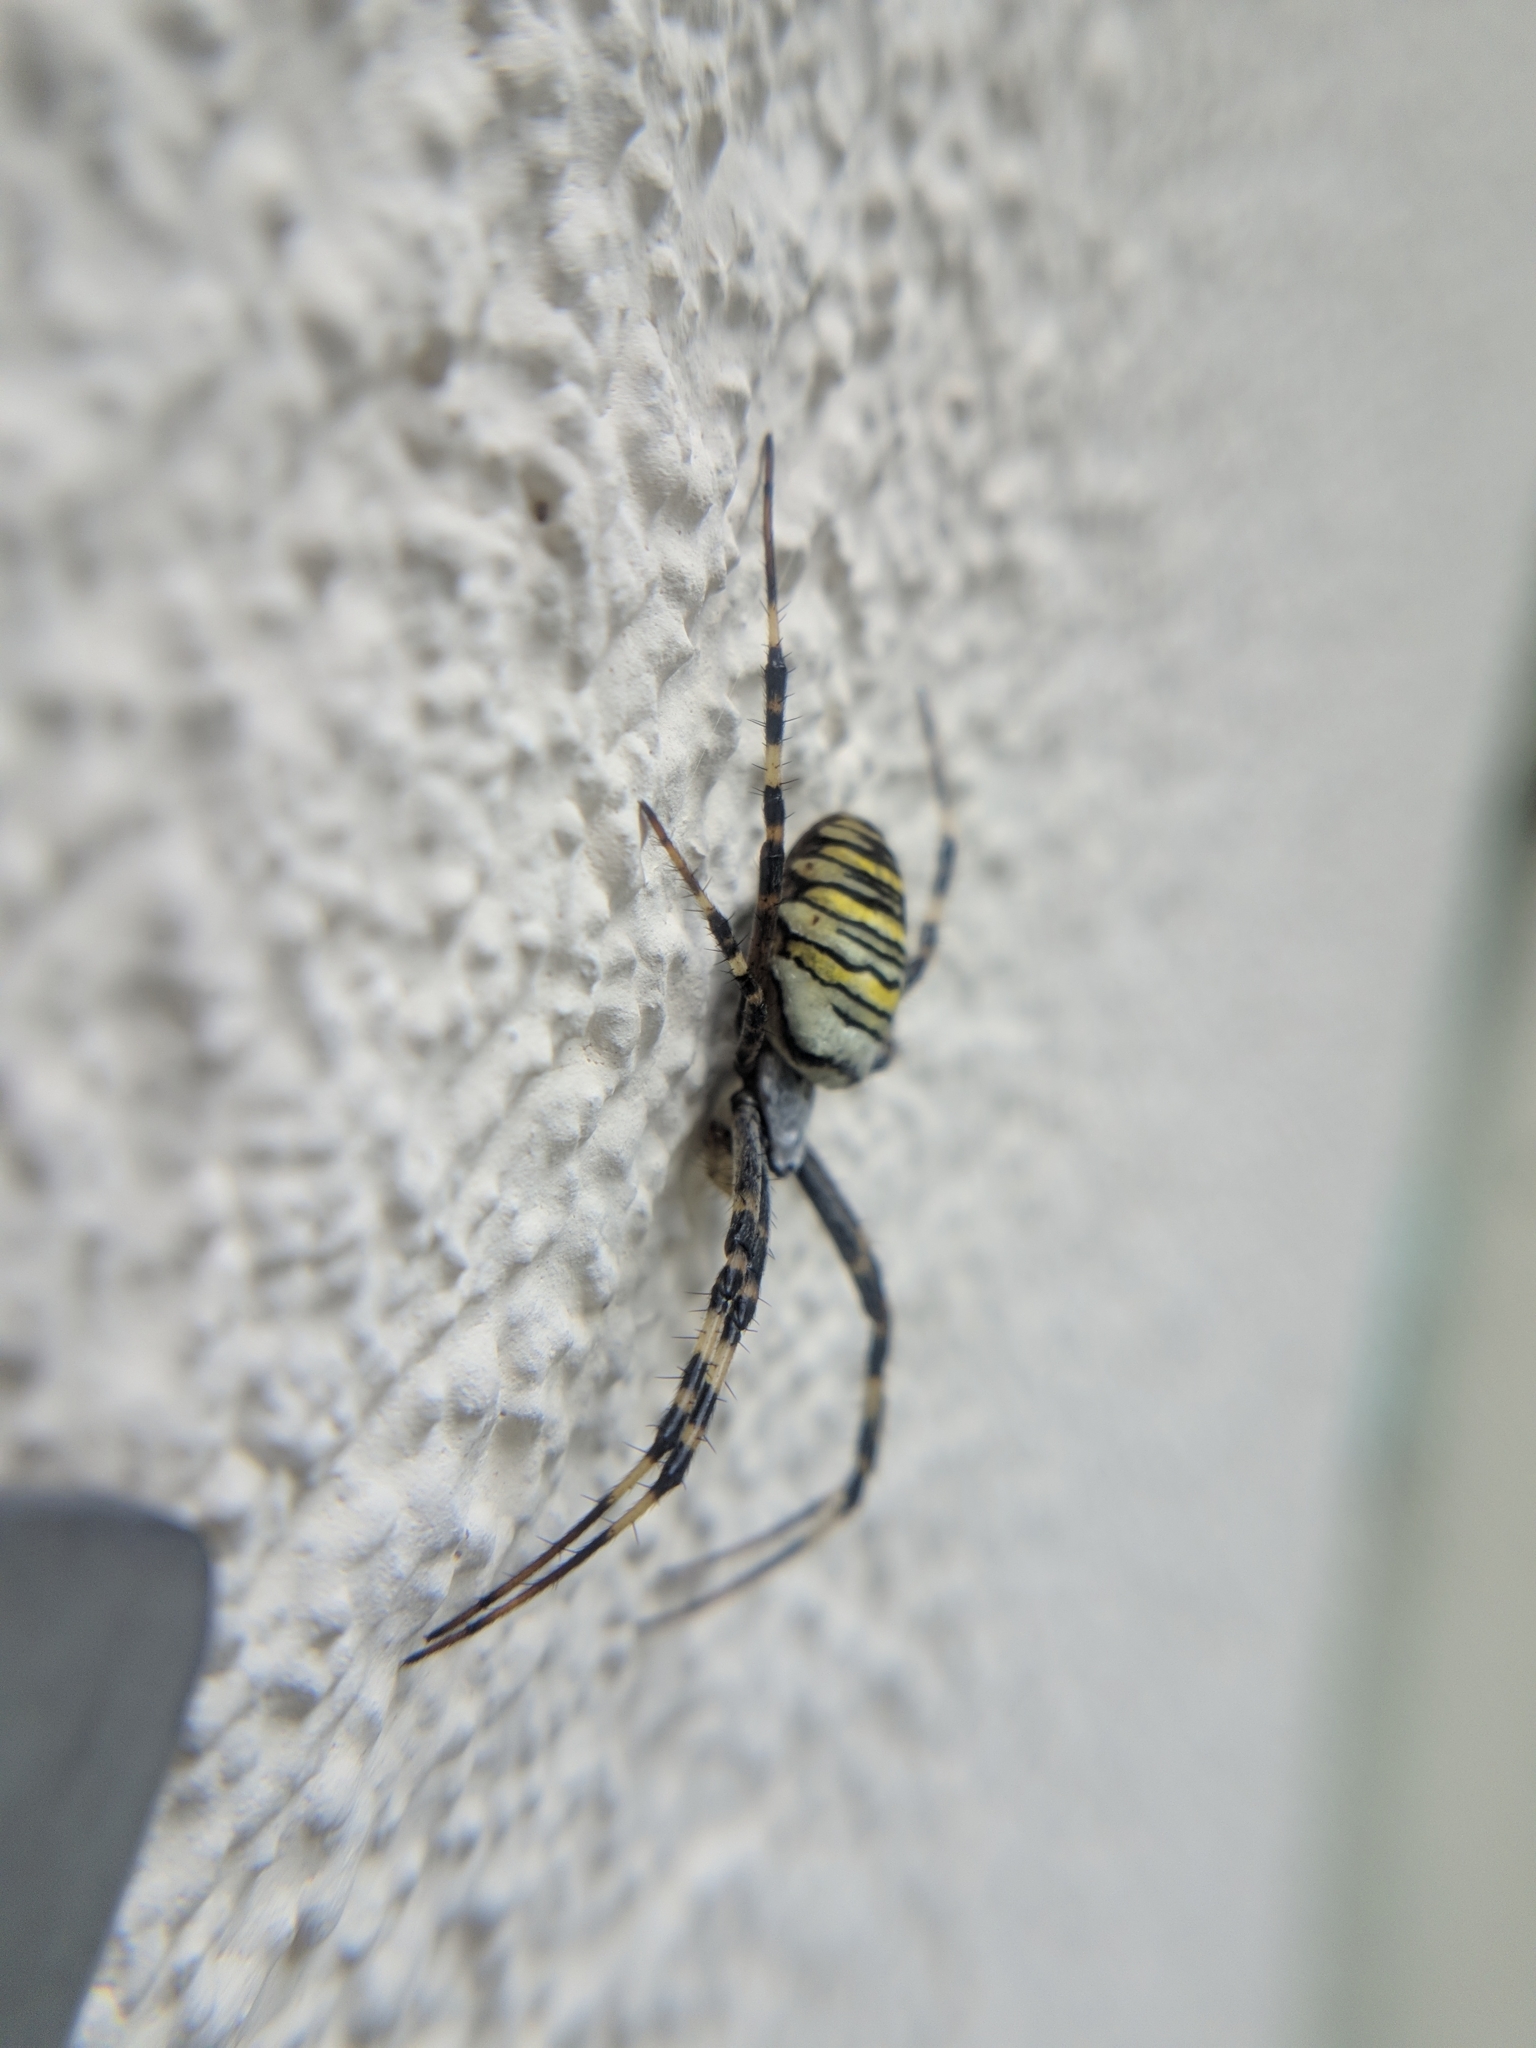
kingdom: Animalia
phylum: Arthropoda
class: Arachnida
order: Araneae
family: Araneidae
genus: Argiope
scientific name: Argiope bruennichi
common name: Wasp spider
